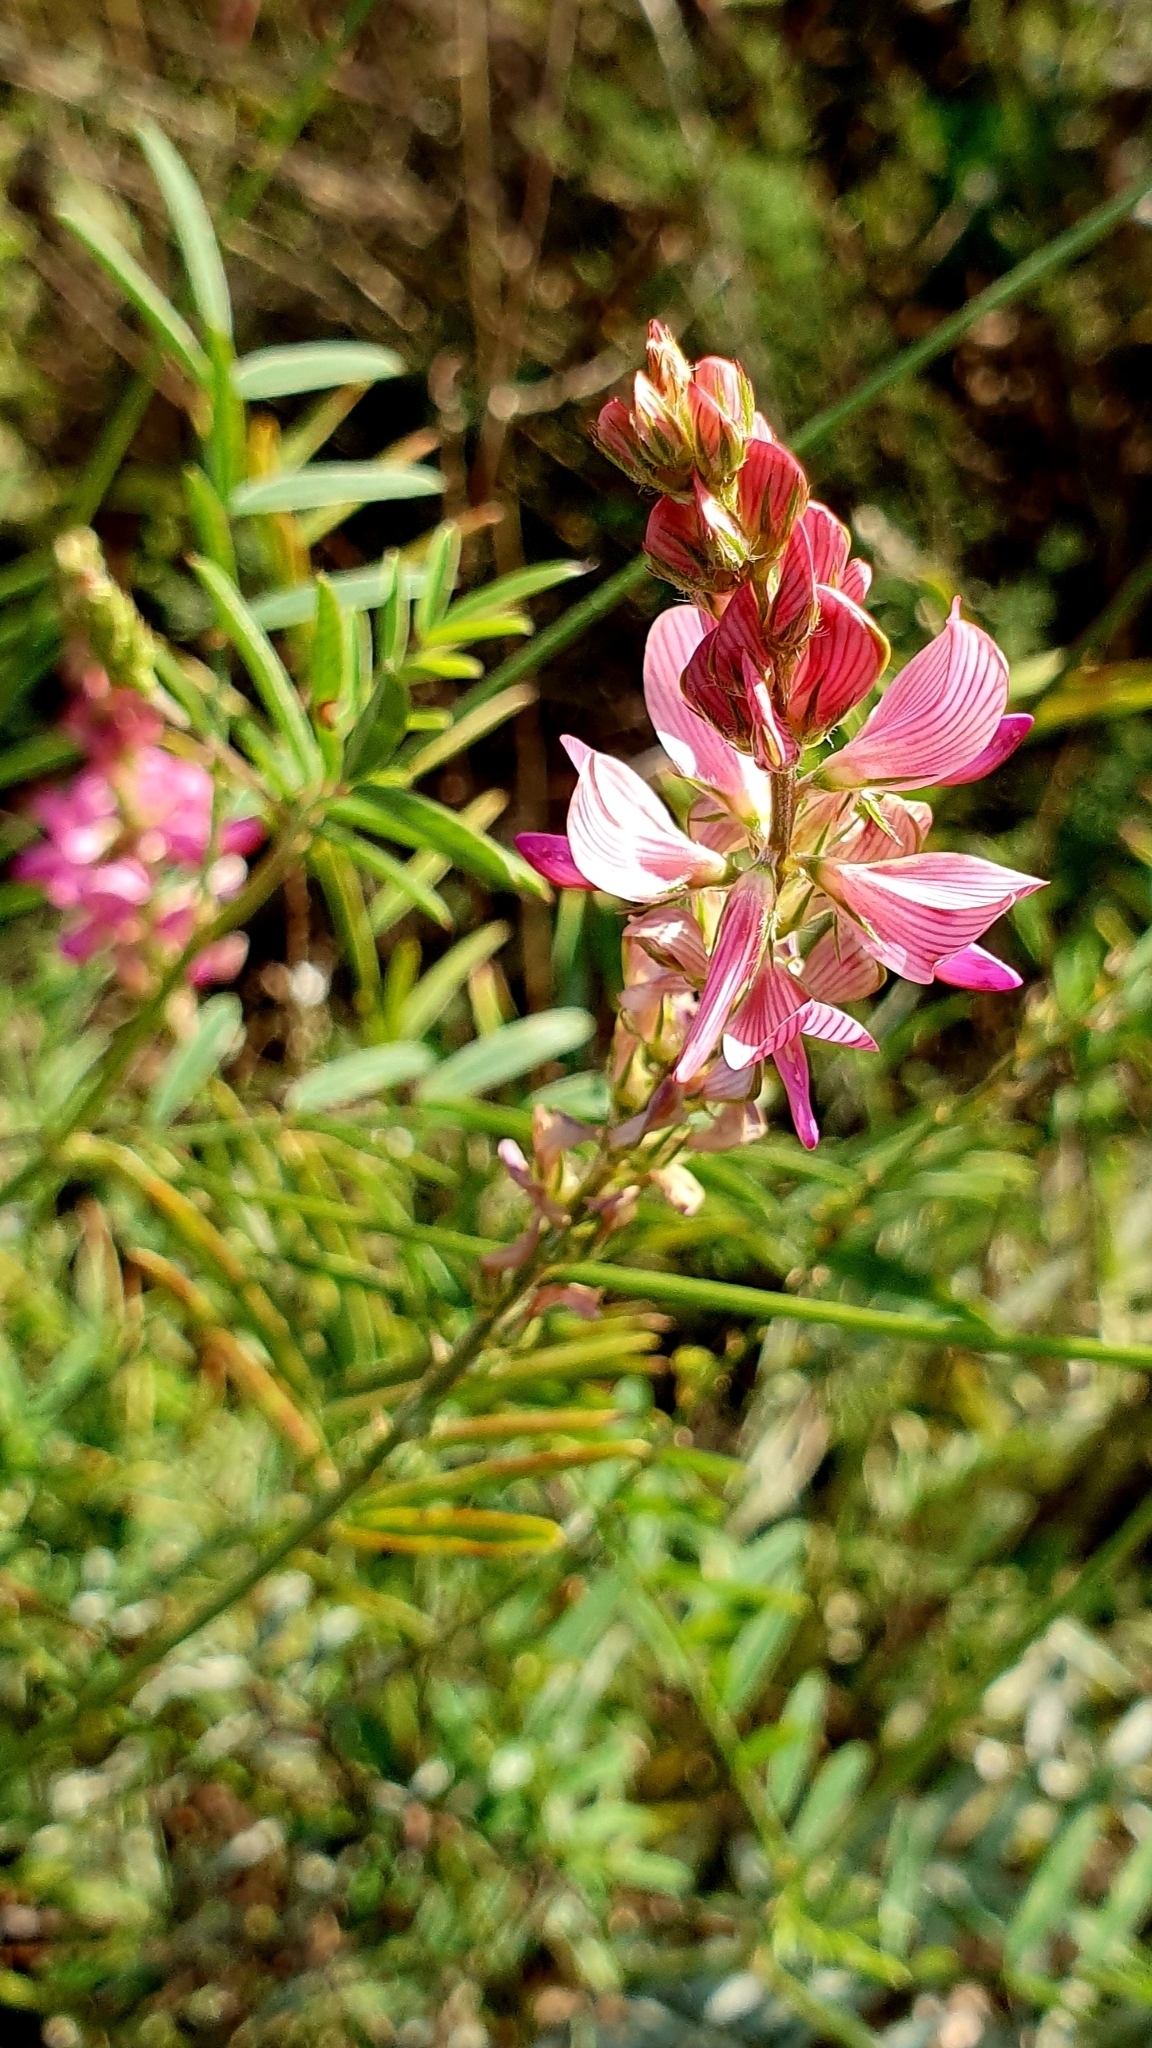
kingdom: Plantae
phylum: Tracheophyta
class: Magnoliopsida
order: Fabales
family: Fabaceae
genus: Onobrychis
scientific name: Onobrychis viciifolia
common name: Sainfoin
